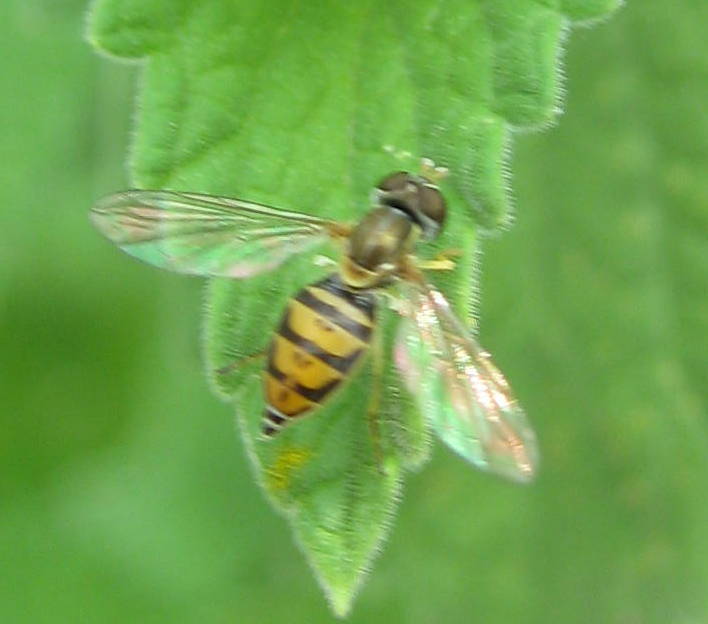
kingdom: Animalia
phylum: Arthropoda
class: Insecta
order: Diptera
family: Syrphidae
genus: Toxomerus
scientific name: Toxomerus marginatus
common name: Syrphid fly
